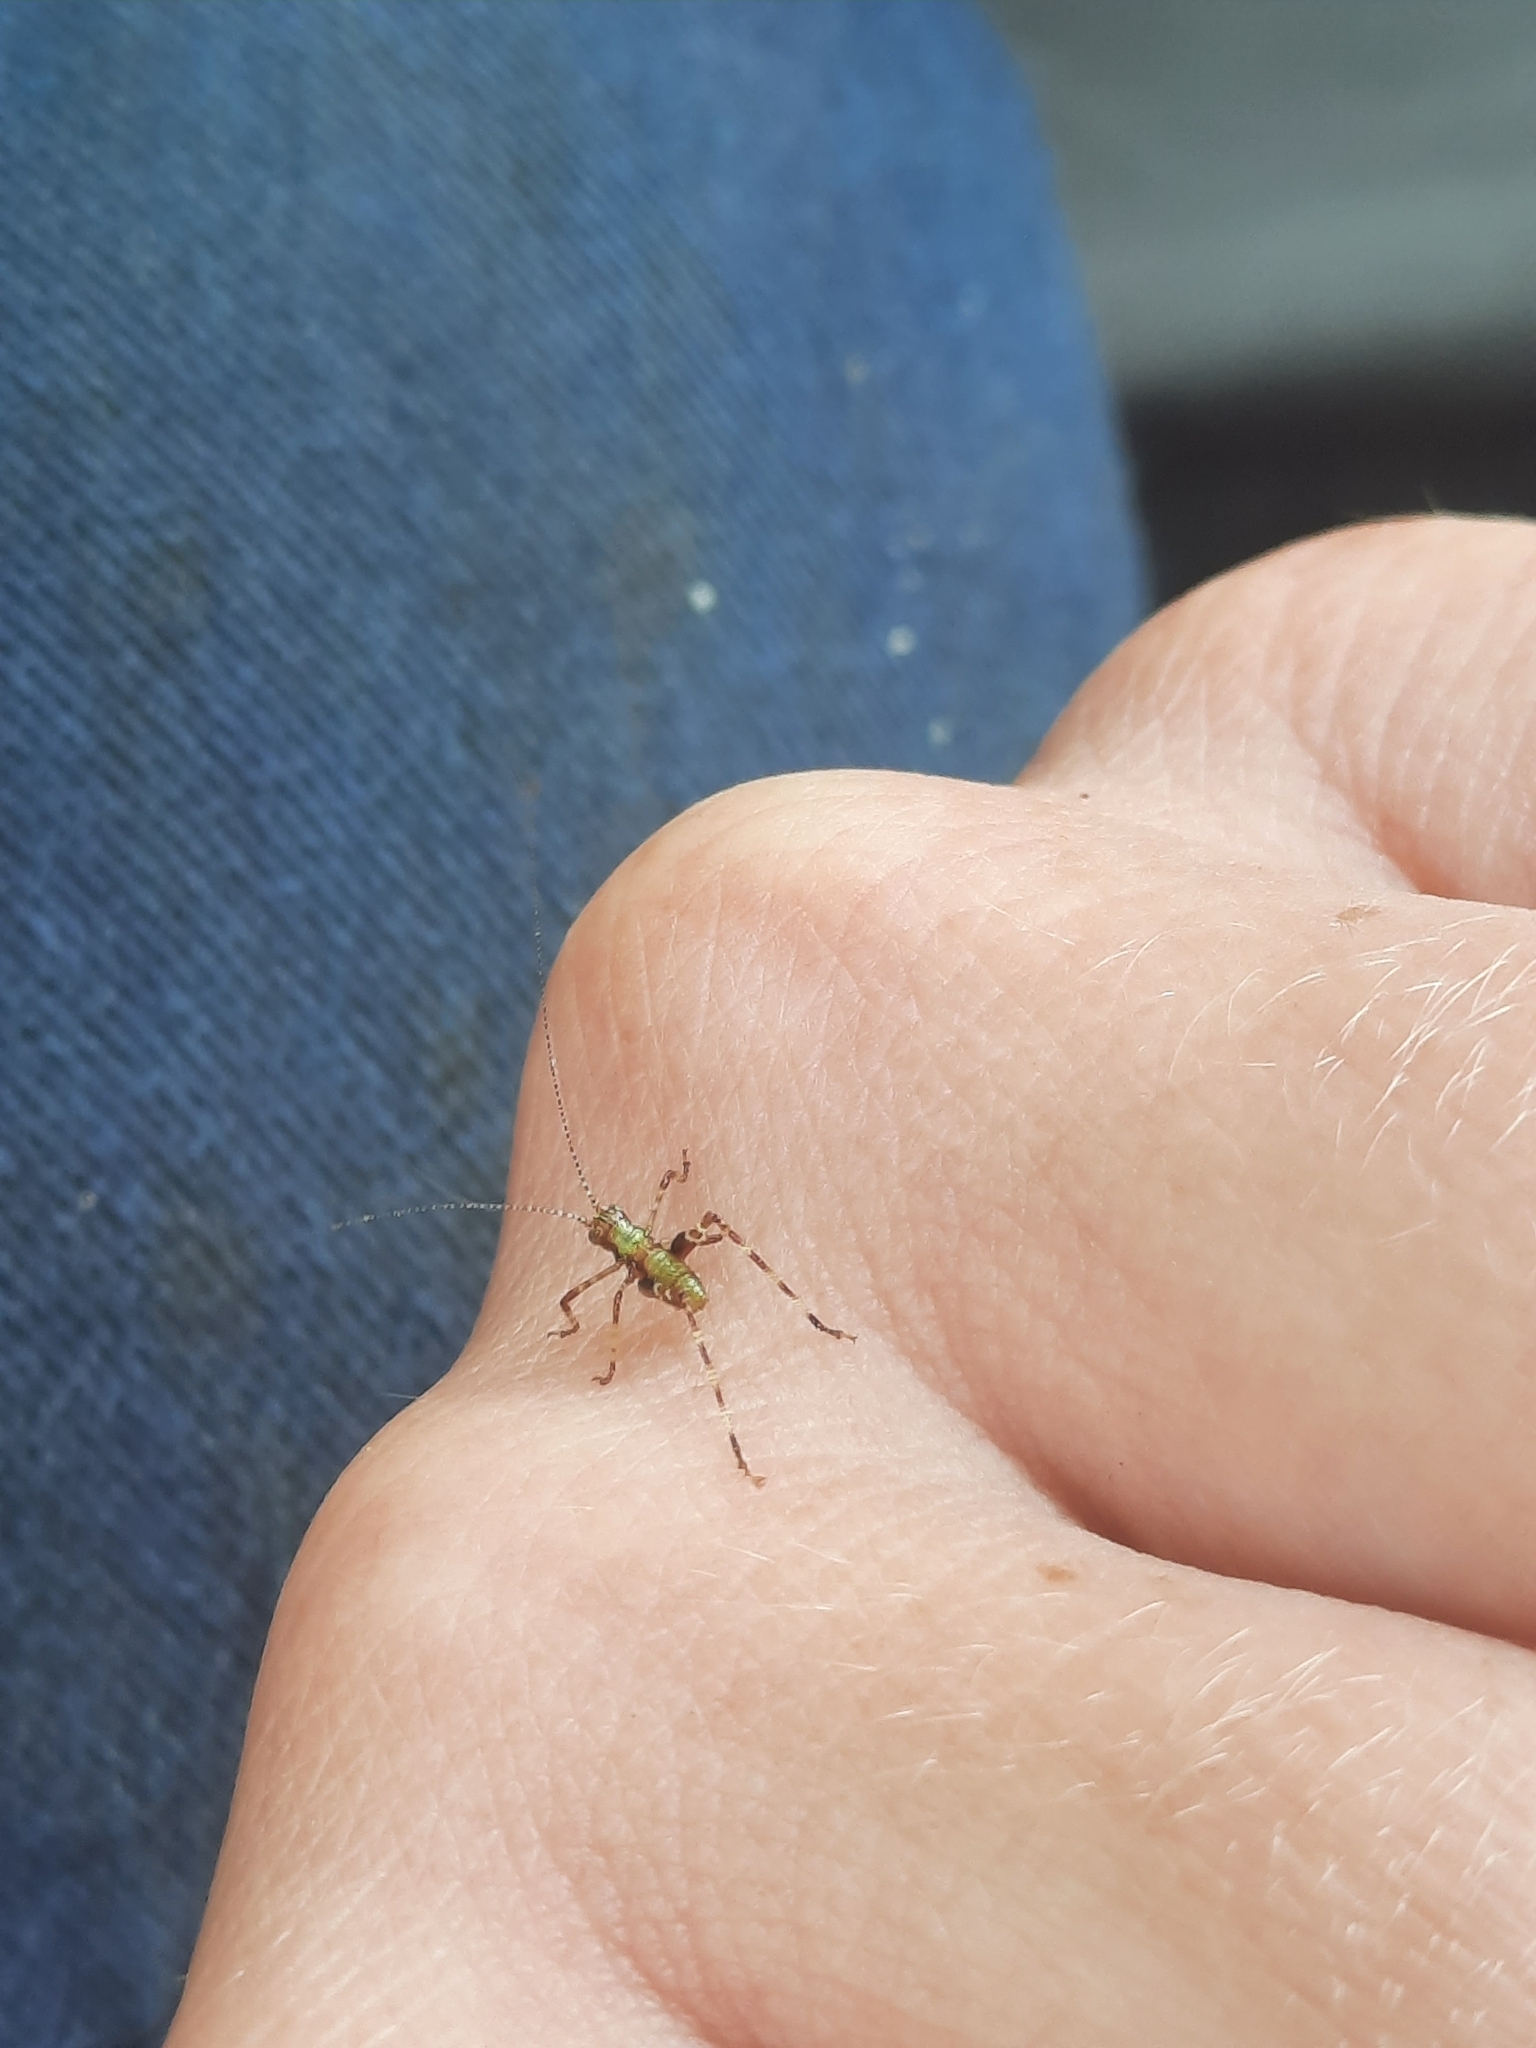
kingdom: Animalia
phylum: Arthropoda
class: Insecta
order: Orthoptera
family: Tettigoniidae
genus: Caedicia
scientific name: Caedicia simplex
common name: Common garden katydid
